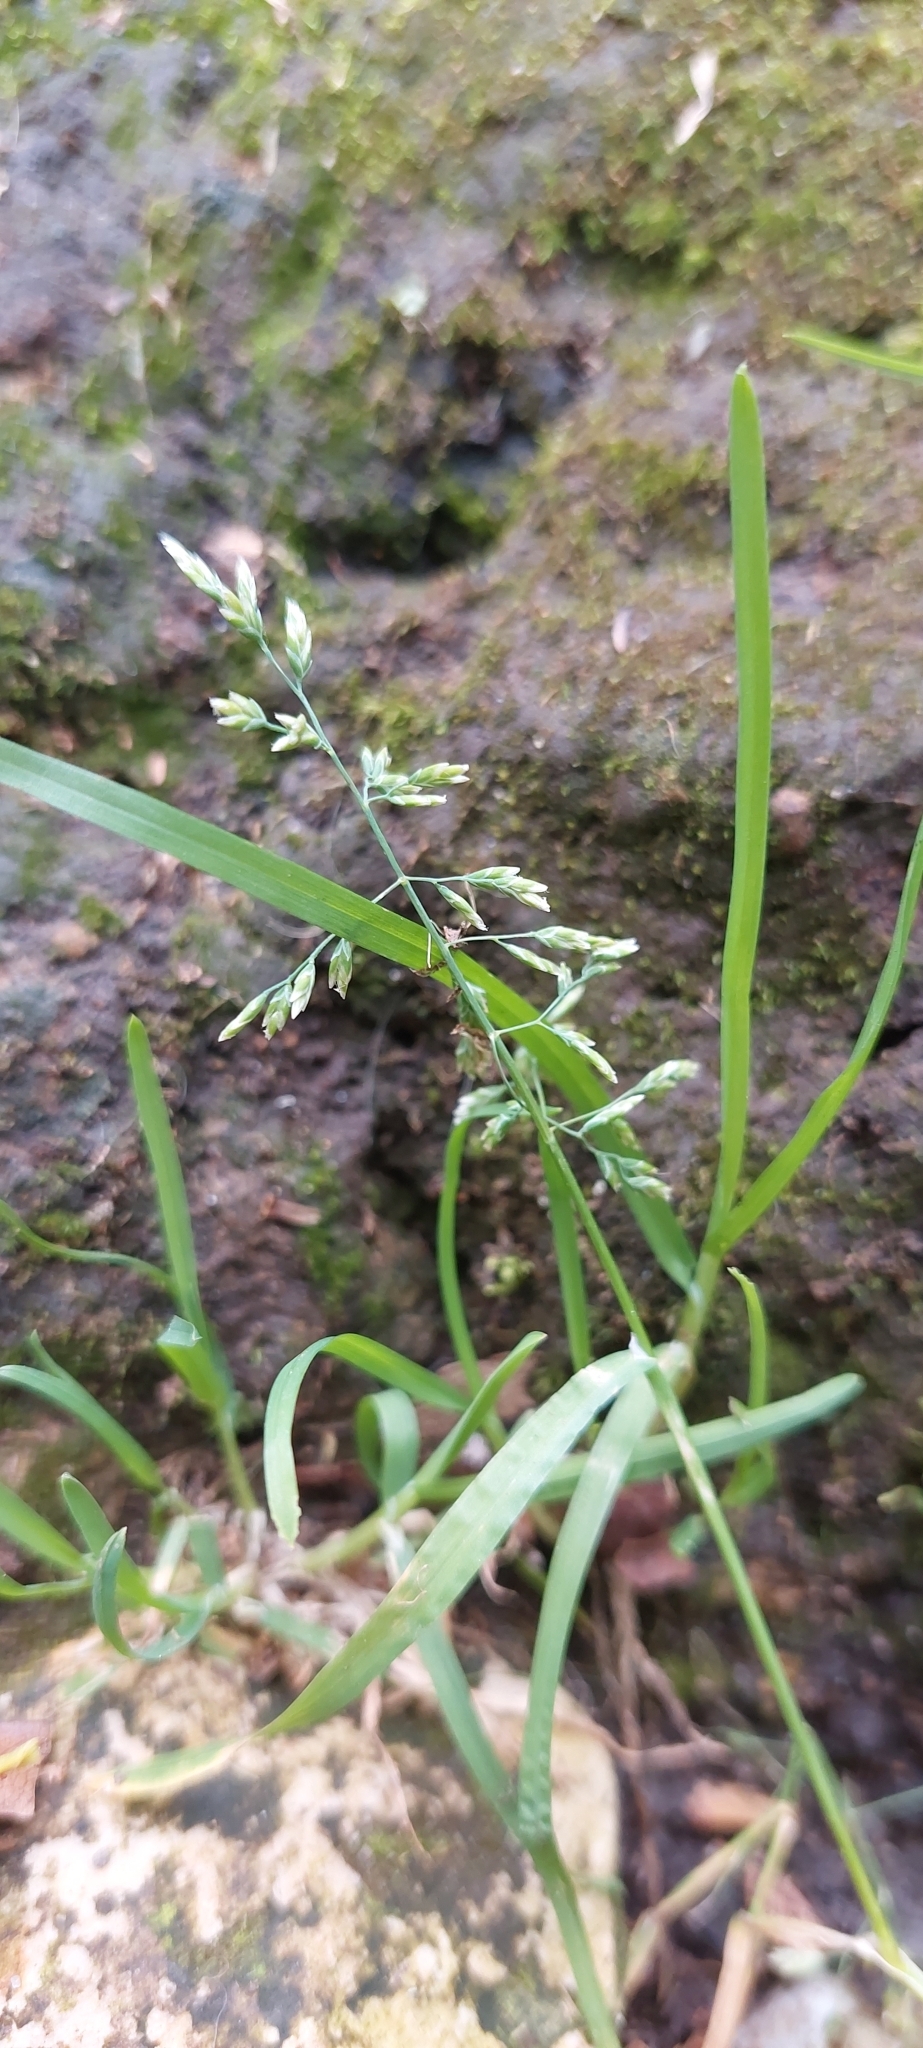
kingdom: Plantae
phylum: Tracheophyta
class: Liliopsida
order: Poales
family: Poaceae
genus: Poa
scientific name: Poa annua
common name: Annual bluegrass
